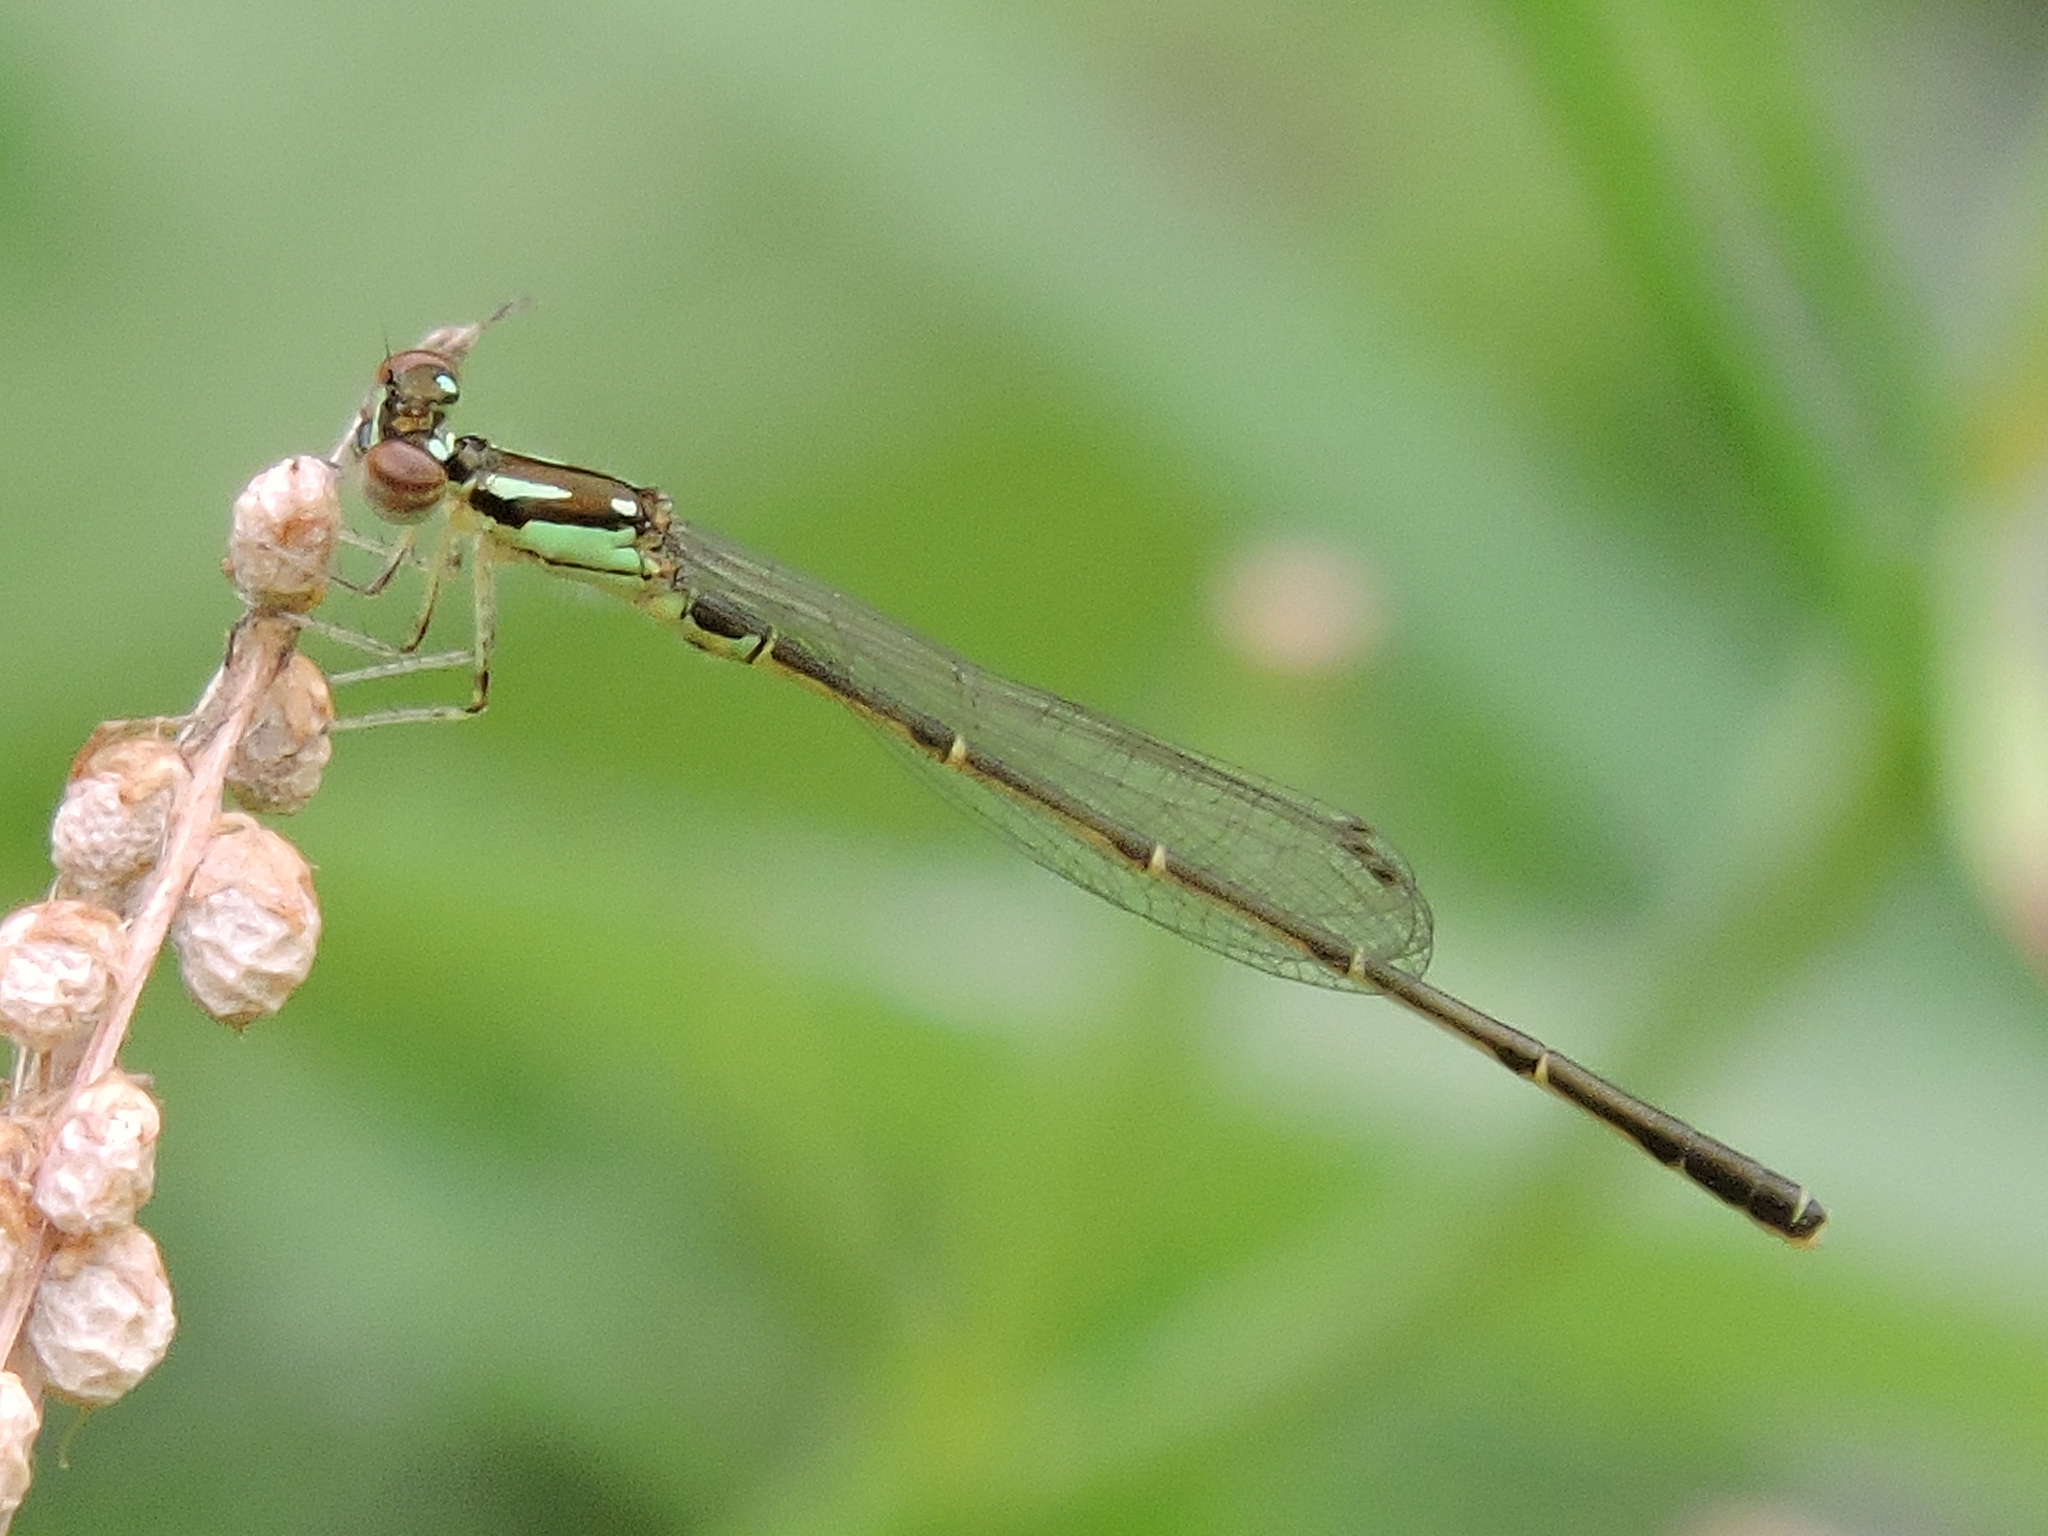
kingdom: Animalia
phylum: Arthropoda
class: Insecta
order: Odonata
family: Coenagrionidae
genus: Ischnura
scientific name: Ischnura posita
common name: Fragile forktail
